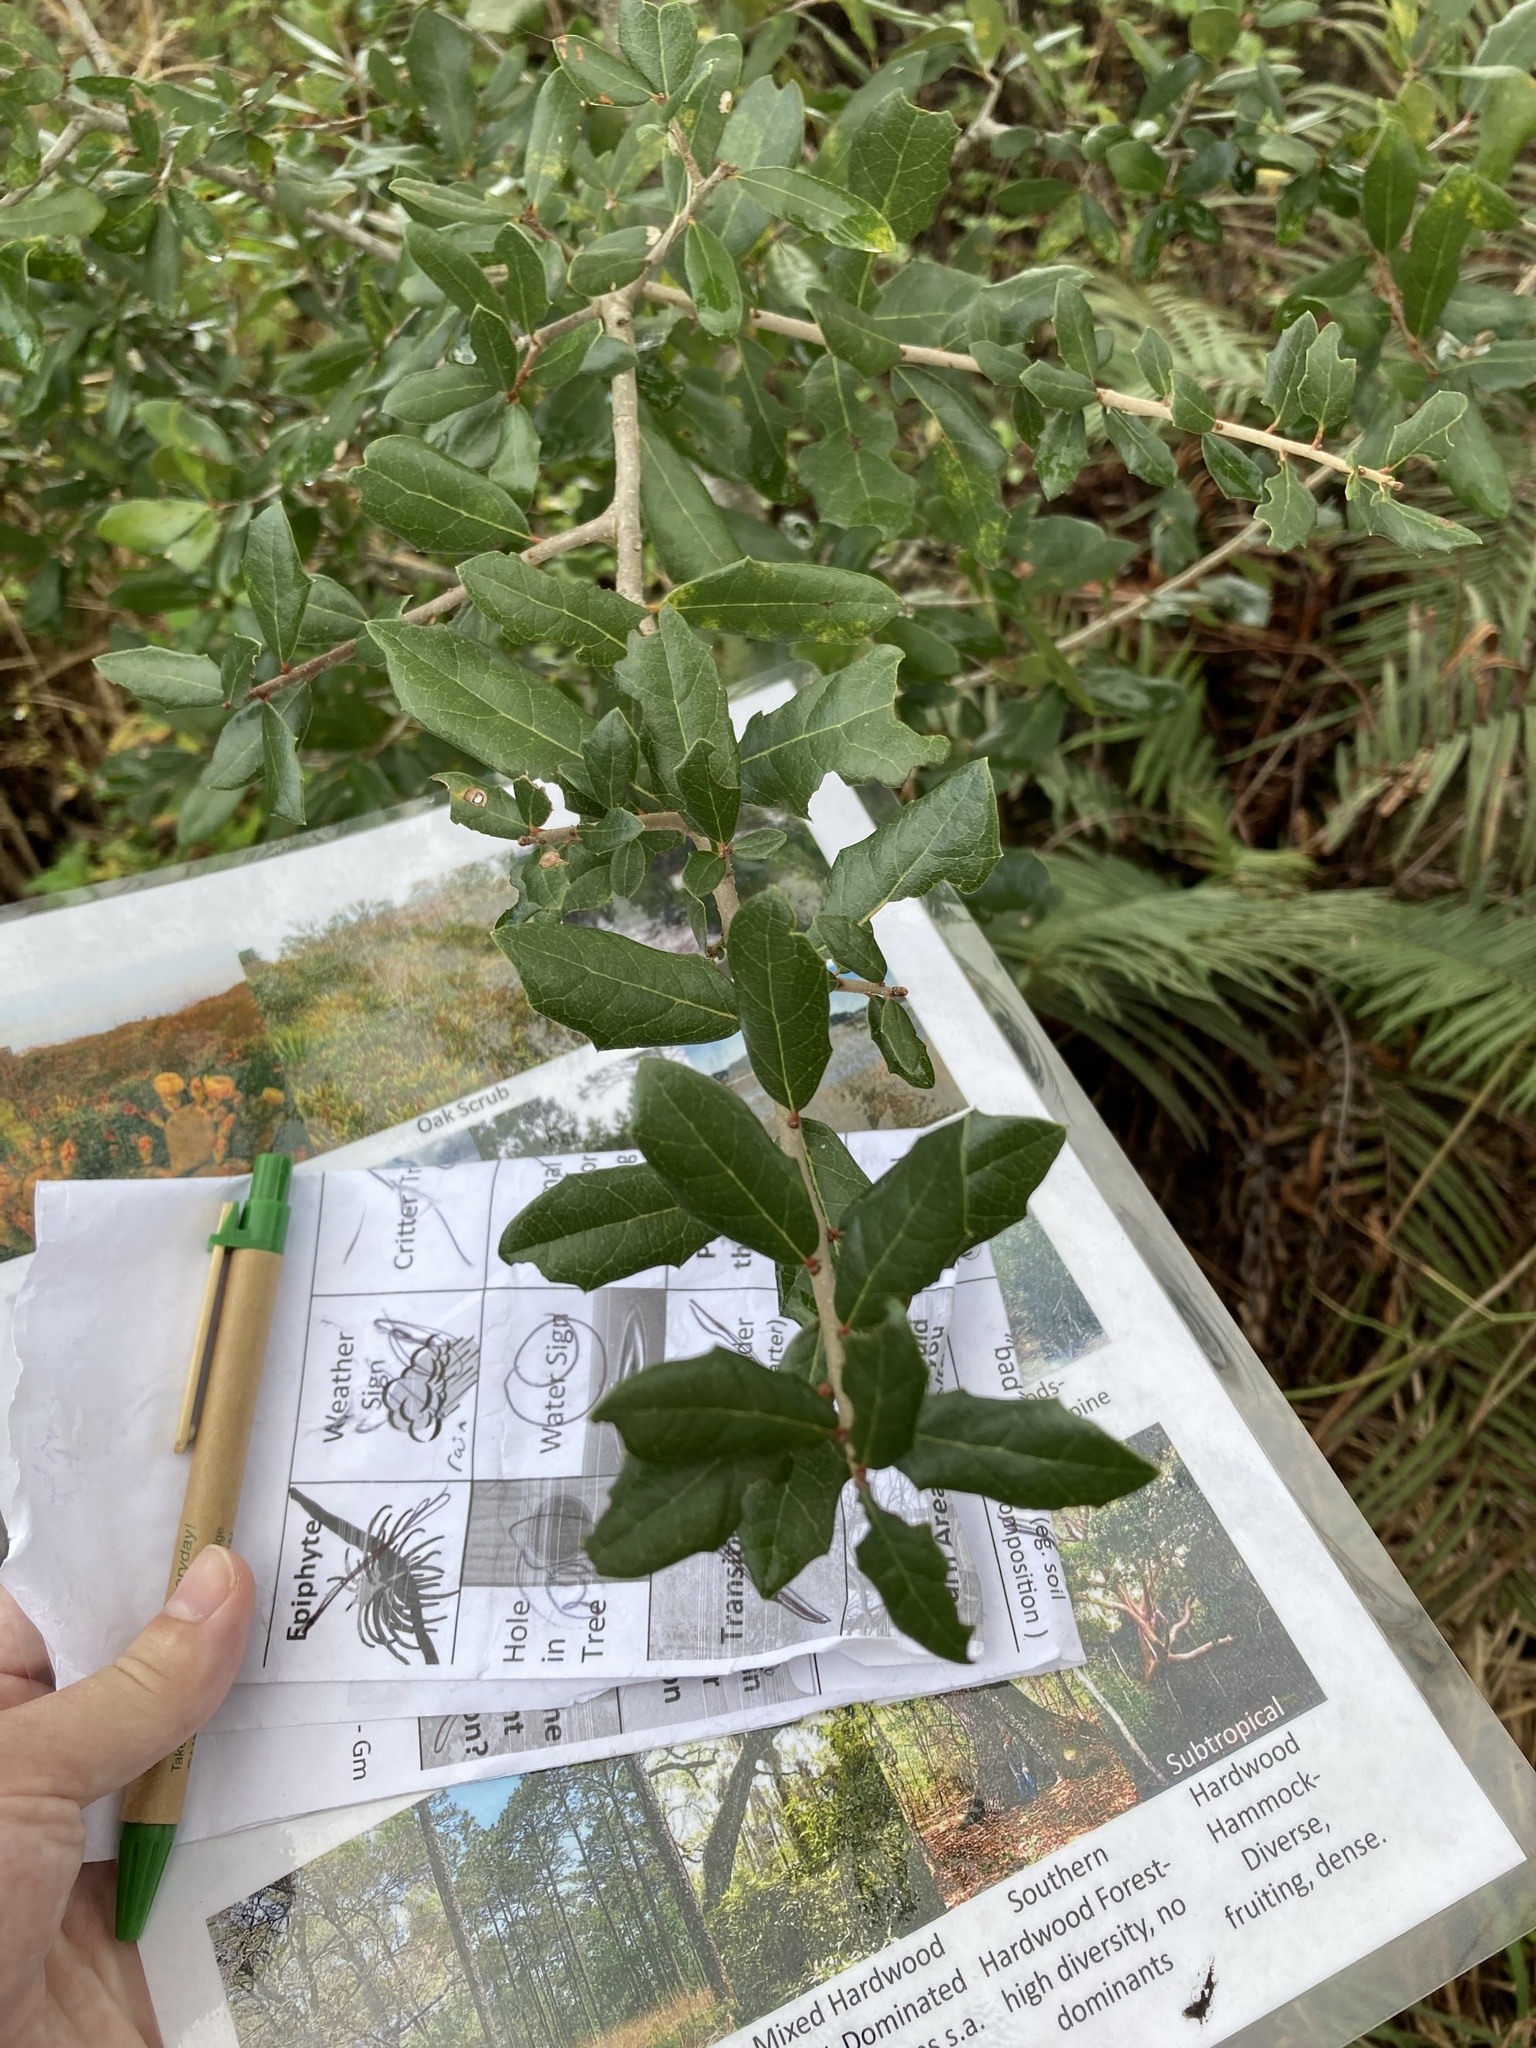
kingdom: Plantae
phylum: Tracheophyta
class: Magnoliopsida
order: Fagales
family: Fagaceae
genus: Quercus
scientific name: Quercus virginiana
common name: Southern live oak
